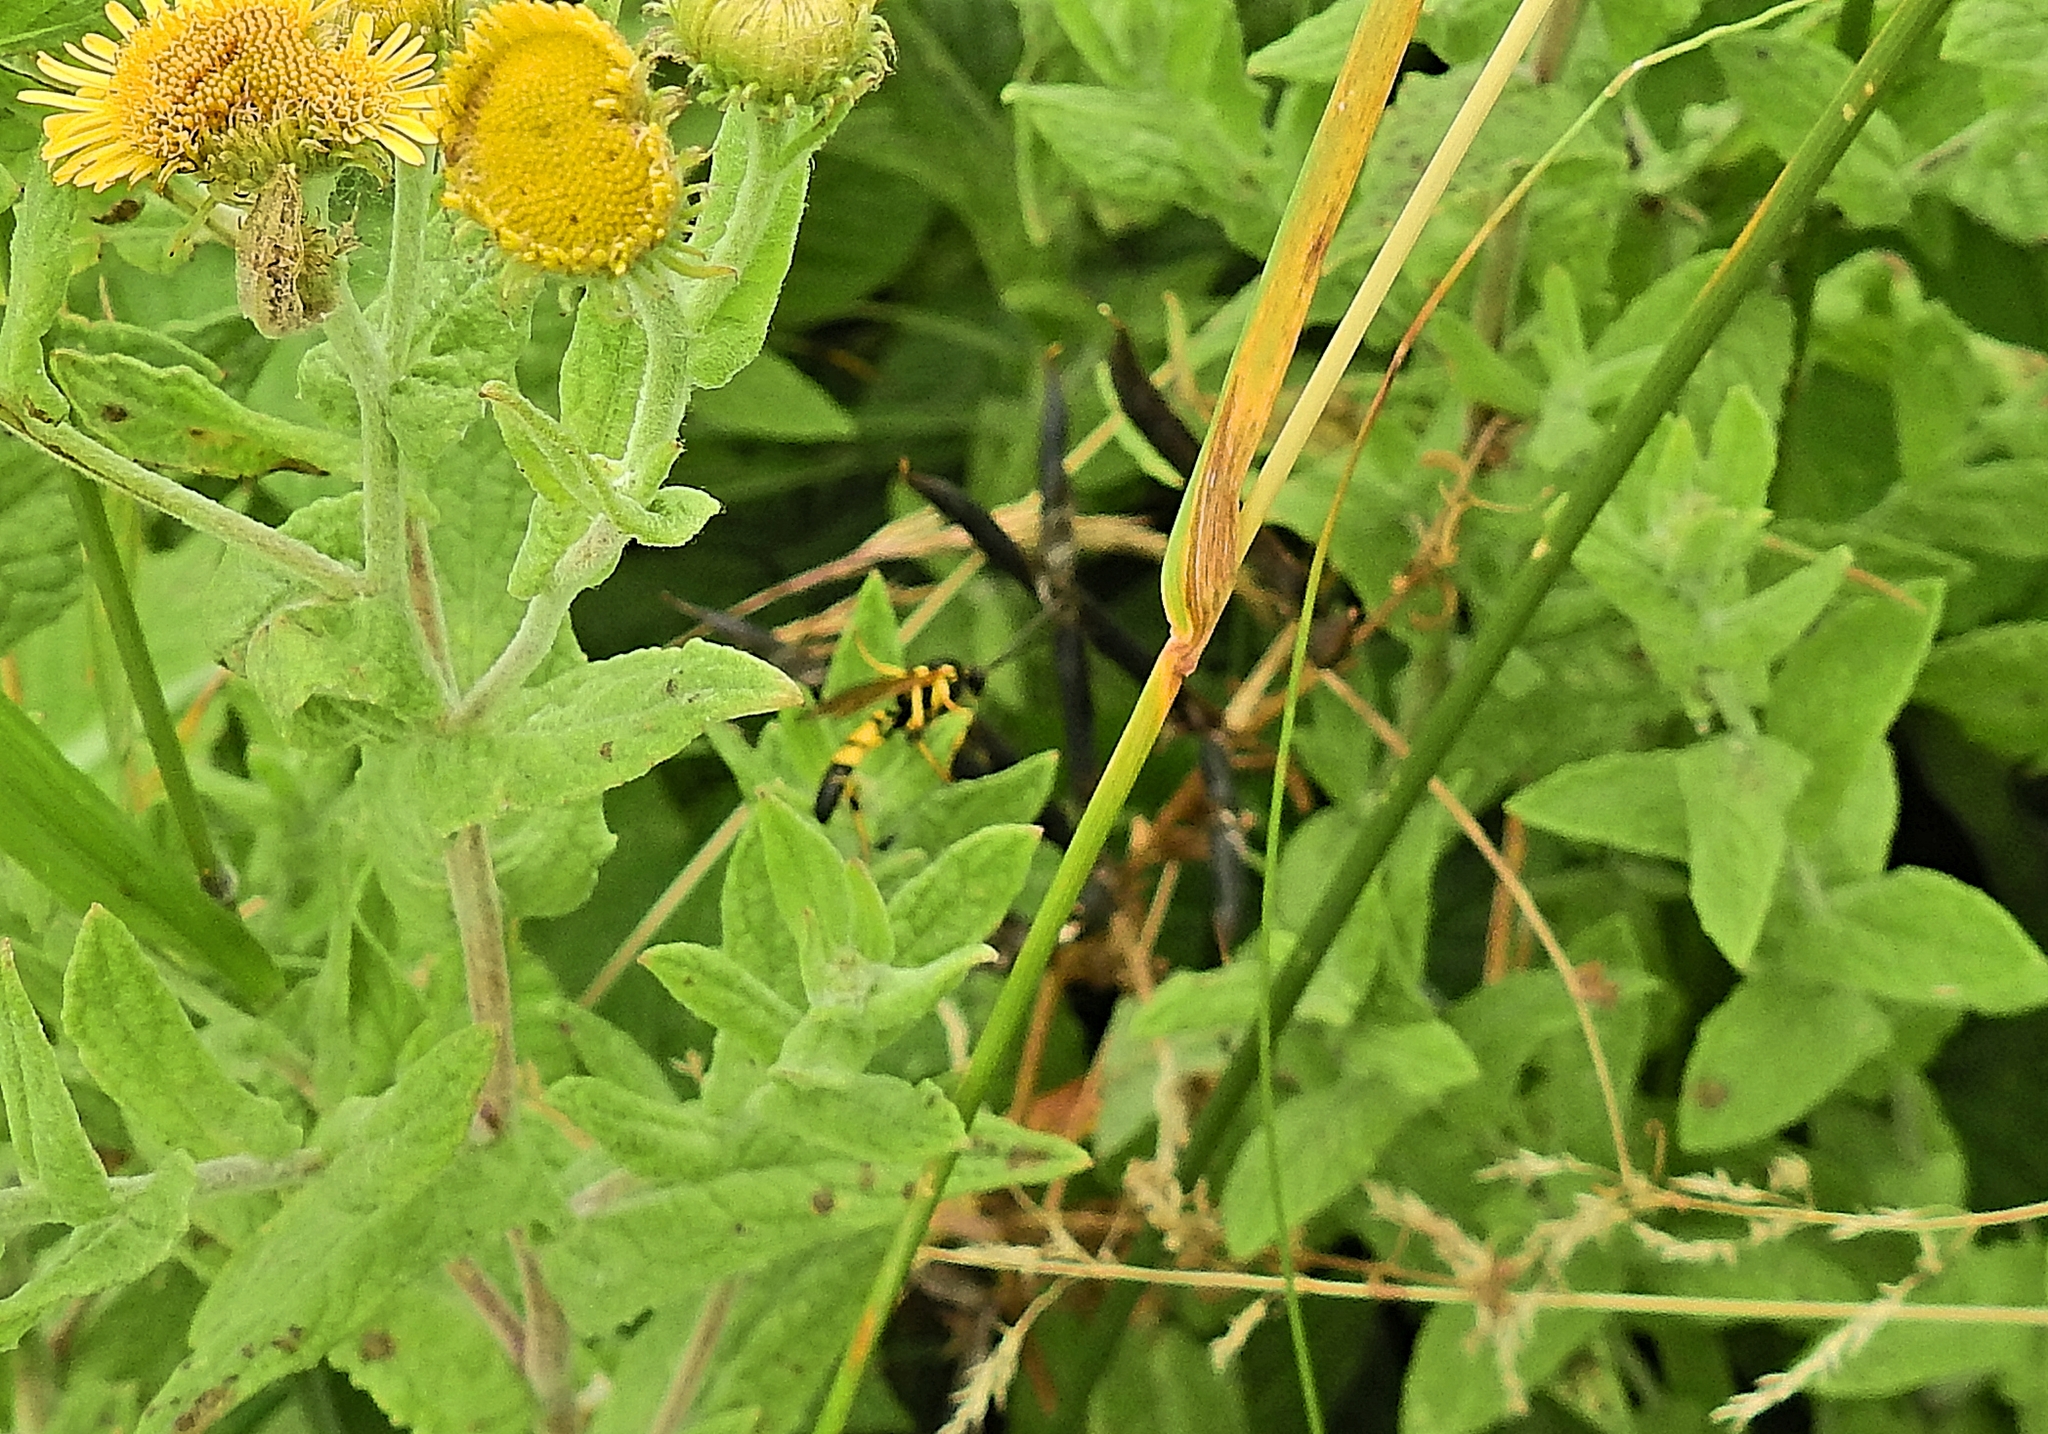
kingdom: Animalia
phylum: Arthropoda
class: Insecta
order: Hymenoptera
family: Ichneumonidae
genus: Ichneumon
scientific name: Ichneumon xanthorius
